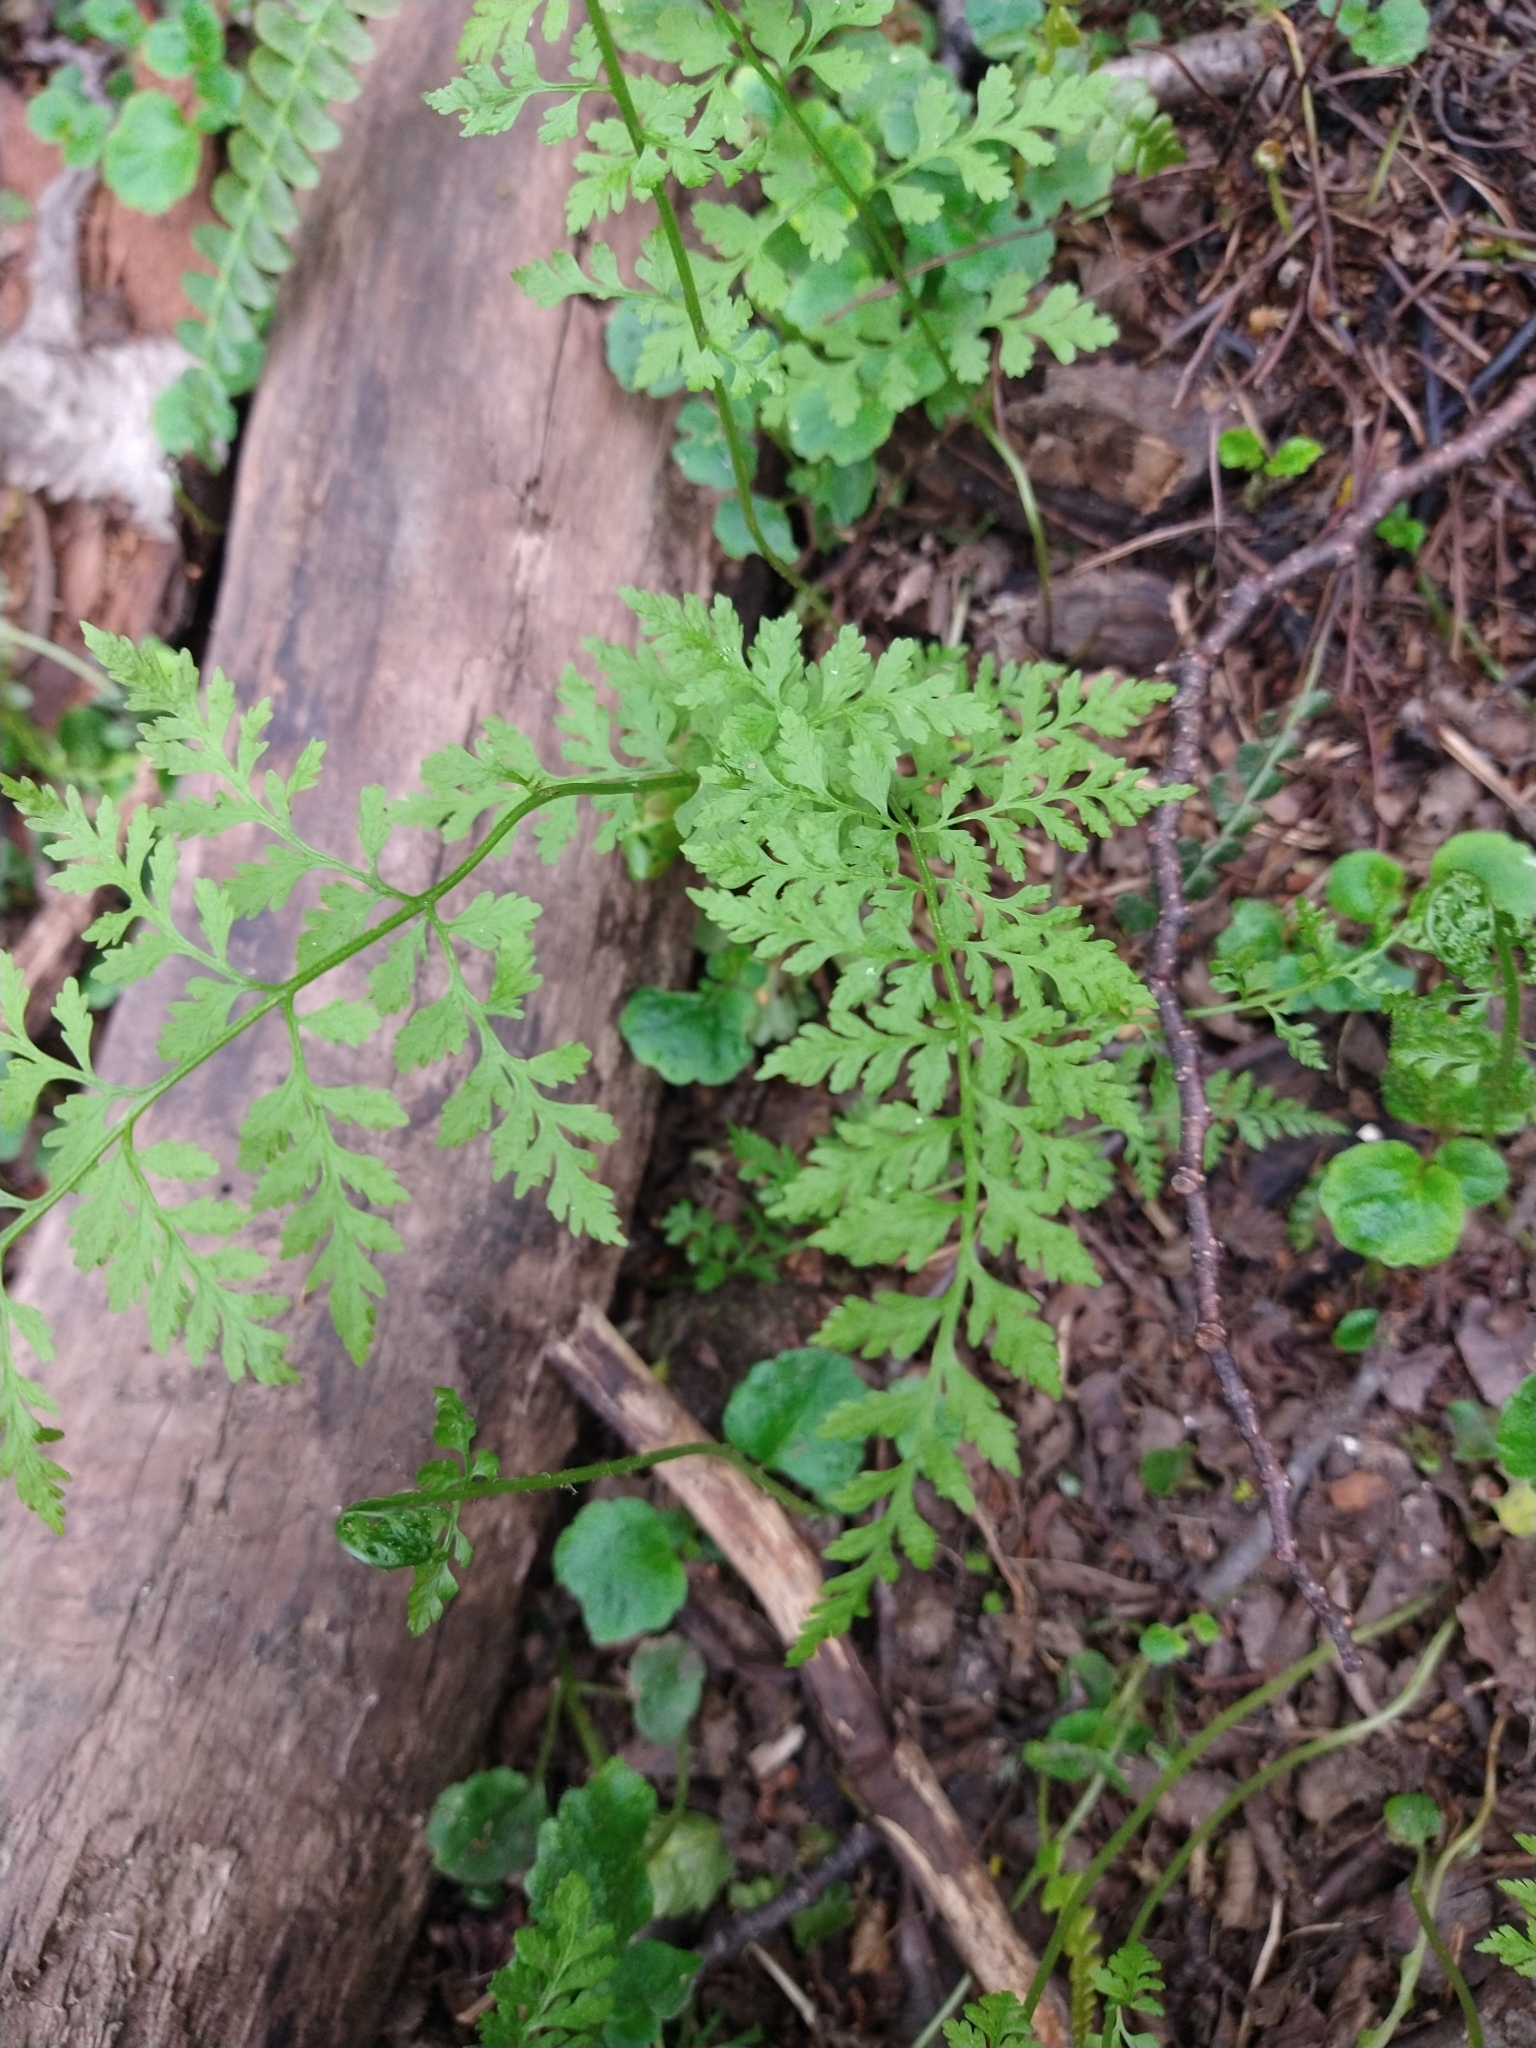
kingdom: Plantae
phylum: Tracheophyta
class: Polypodiopsida
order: Polypodiales
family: Cystopteridaceae
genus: Cystopteris
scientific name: Cystopteris fragilis
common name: Brittle bladder fern
